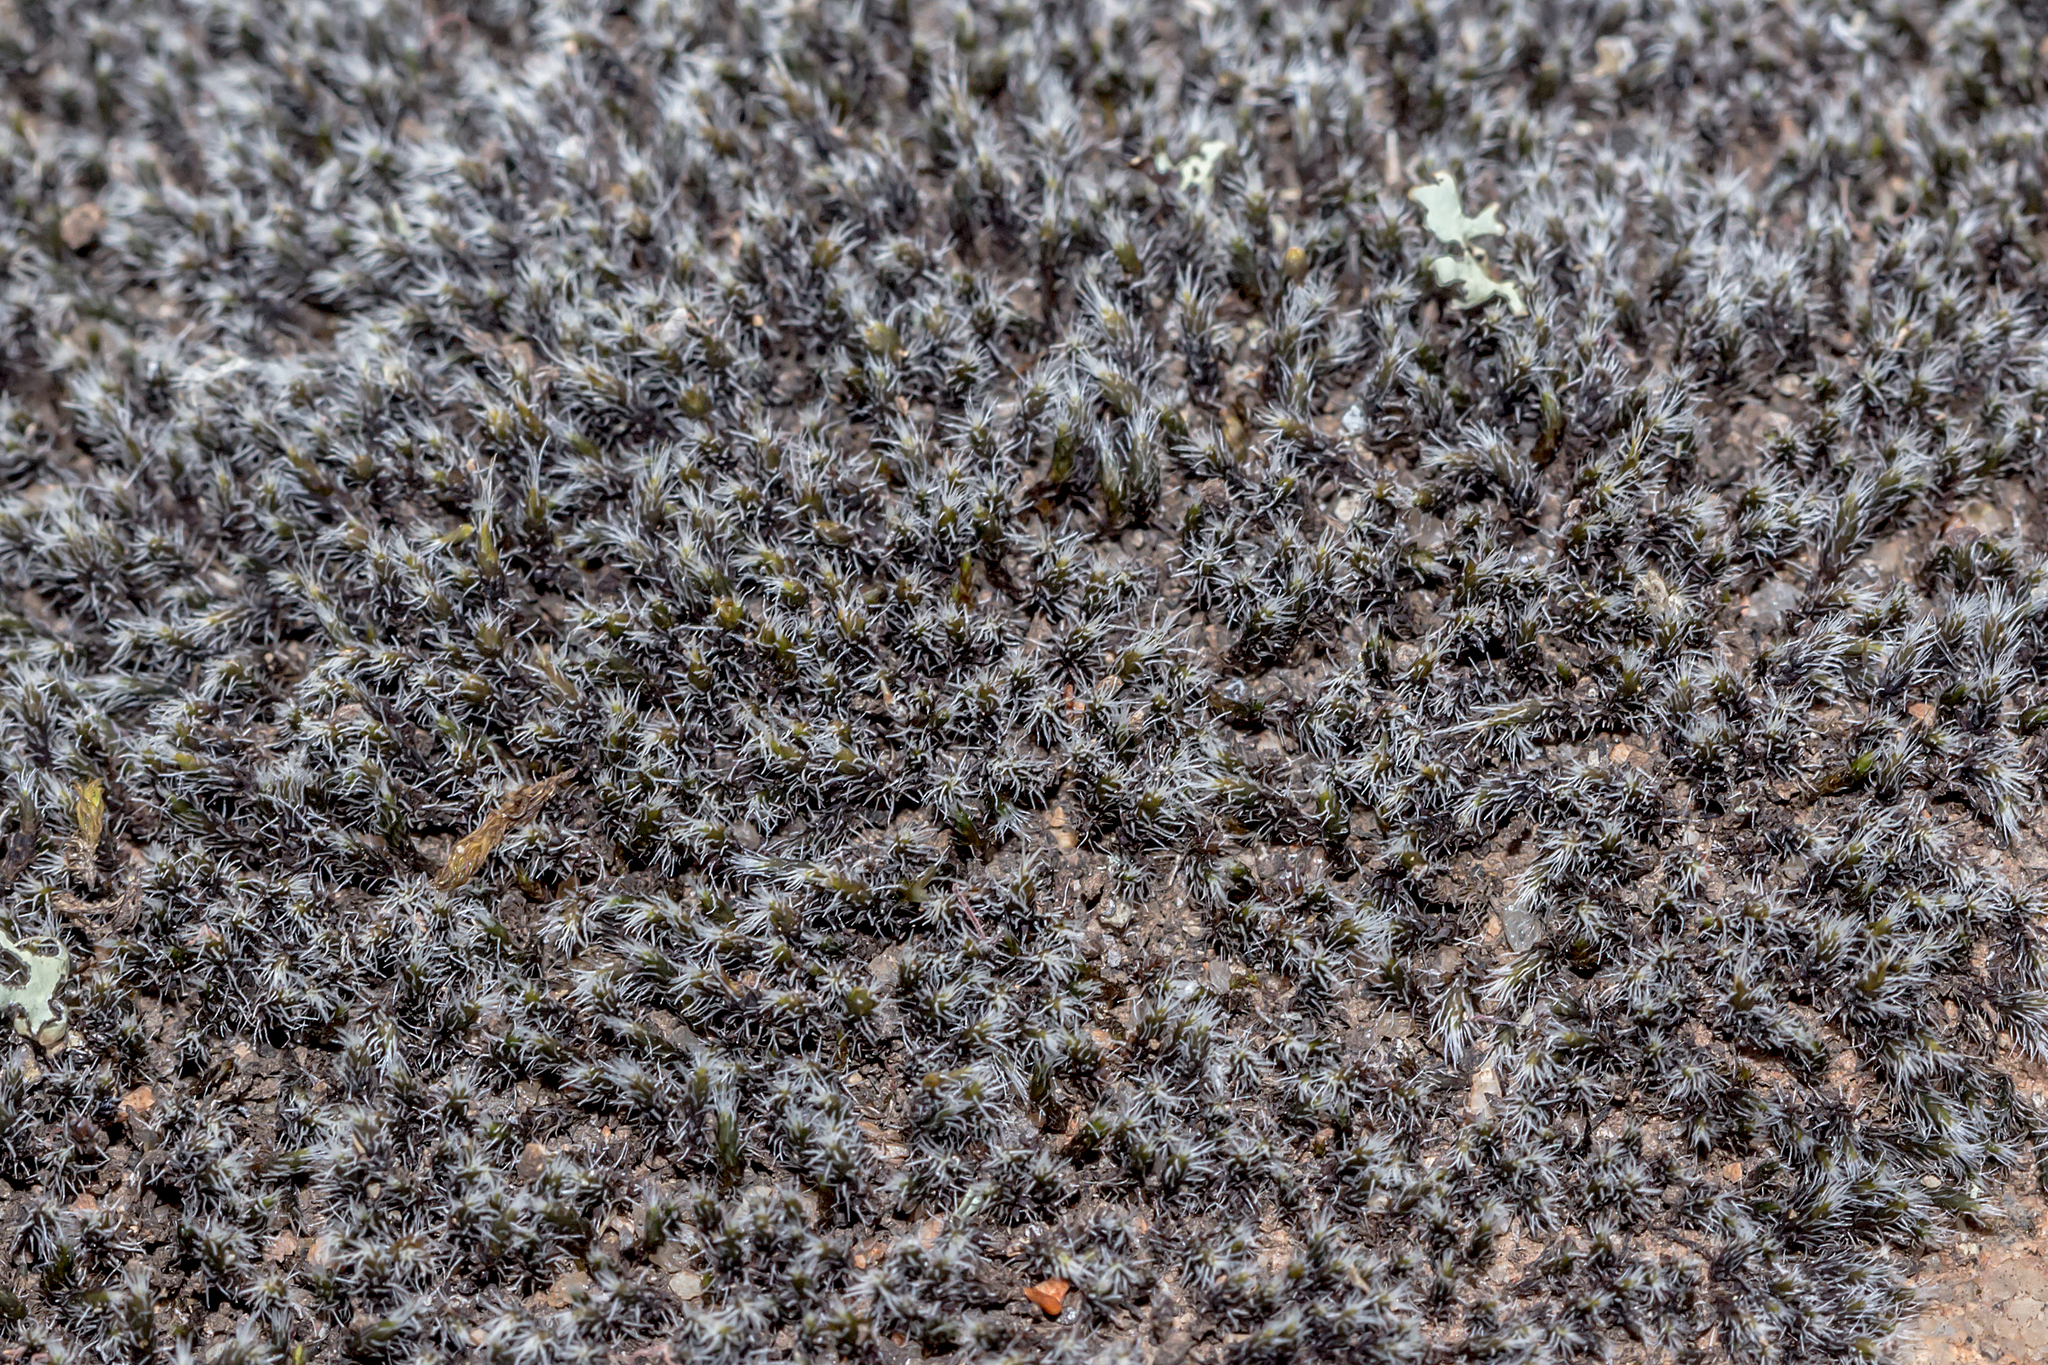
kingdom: Plantae
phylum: Bryophyta
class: Bryopsida
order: Grimmiales
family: Grimmiaceae
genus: Grimmia
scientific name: Grimmia laevigata
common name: Hoary grimmia
